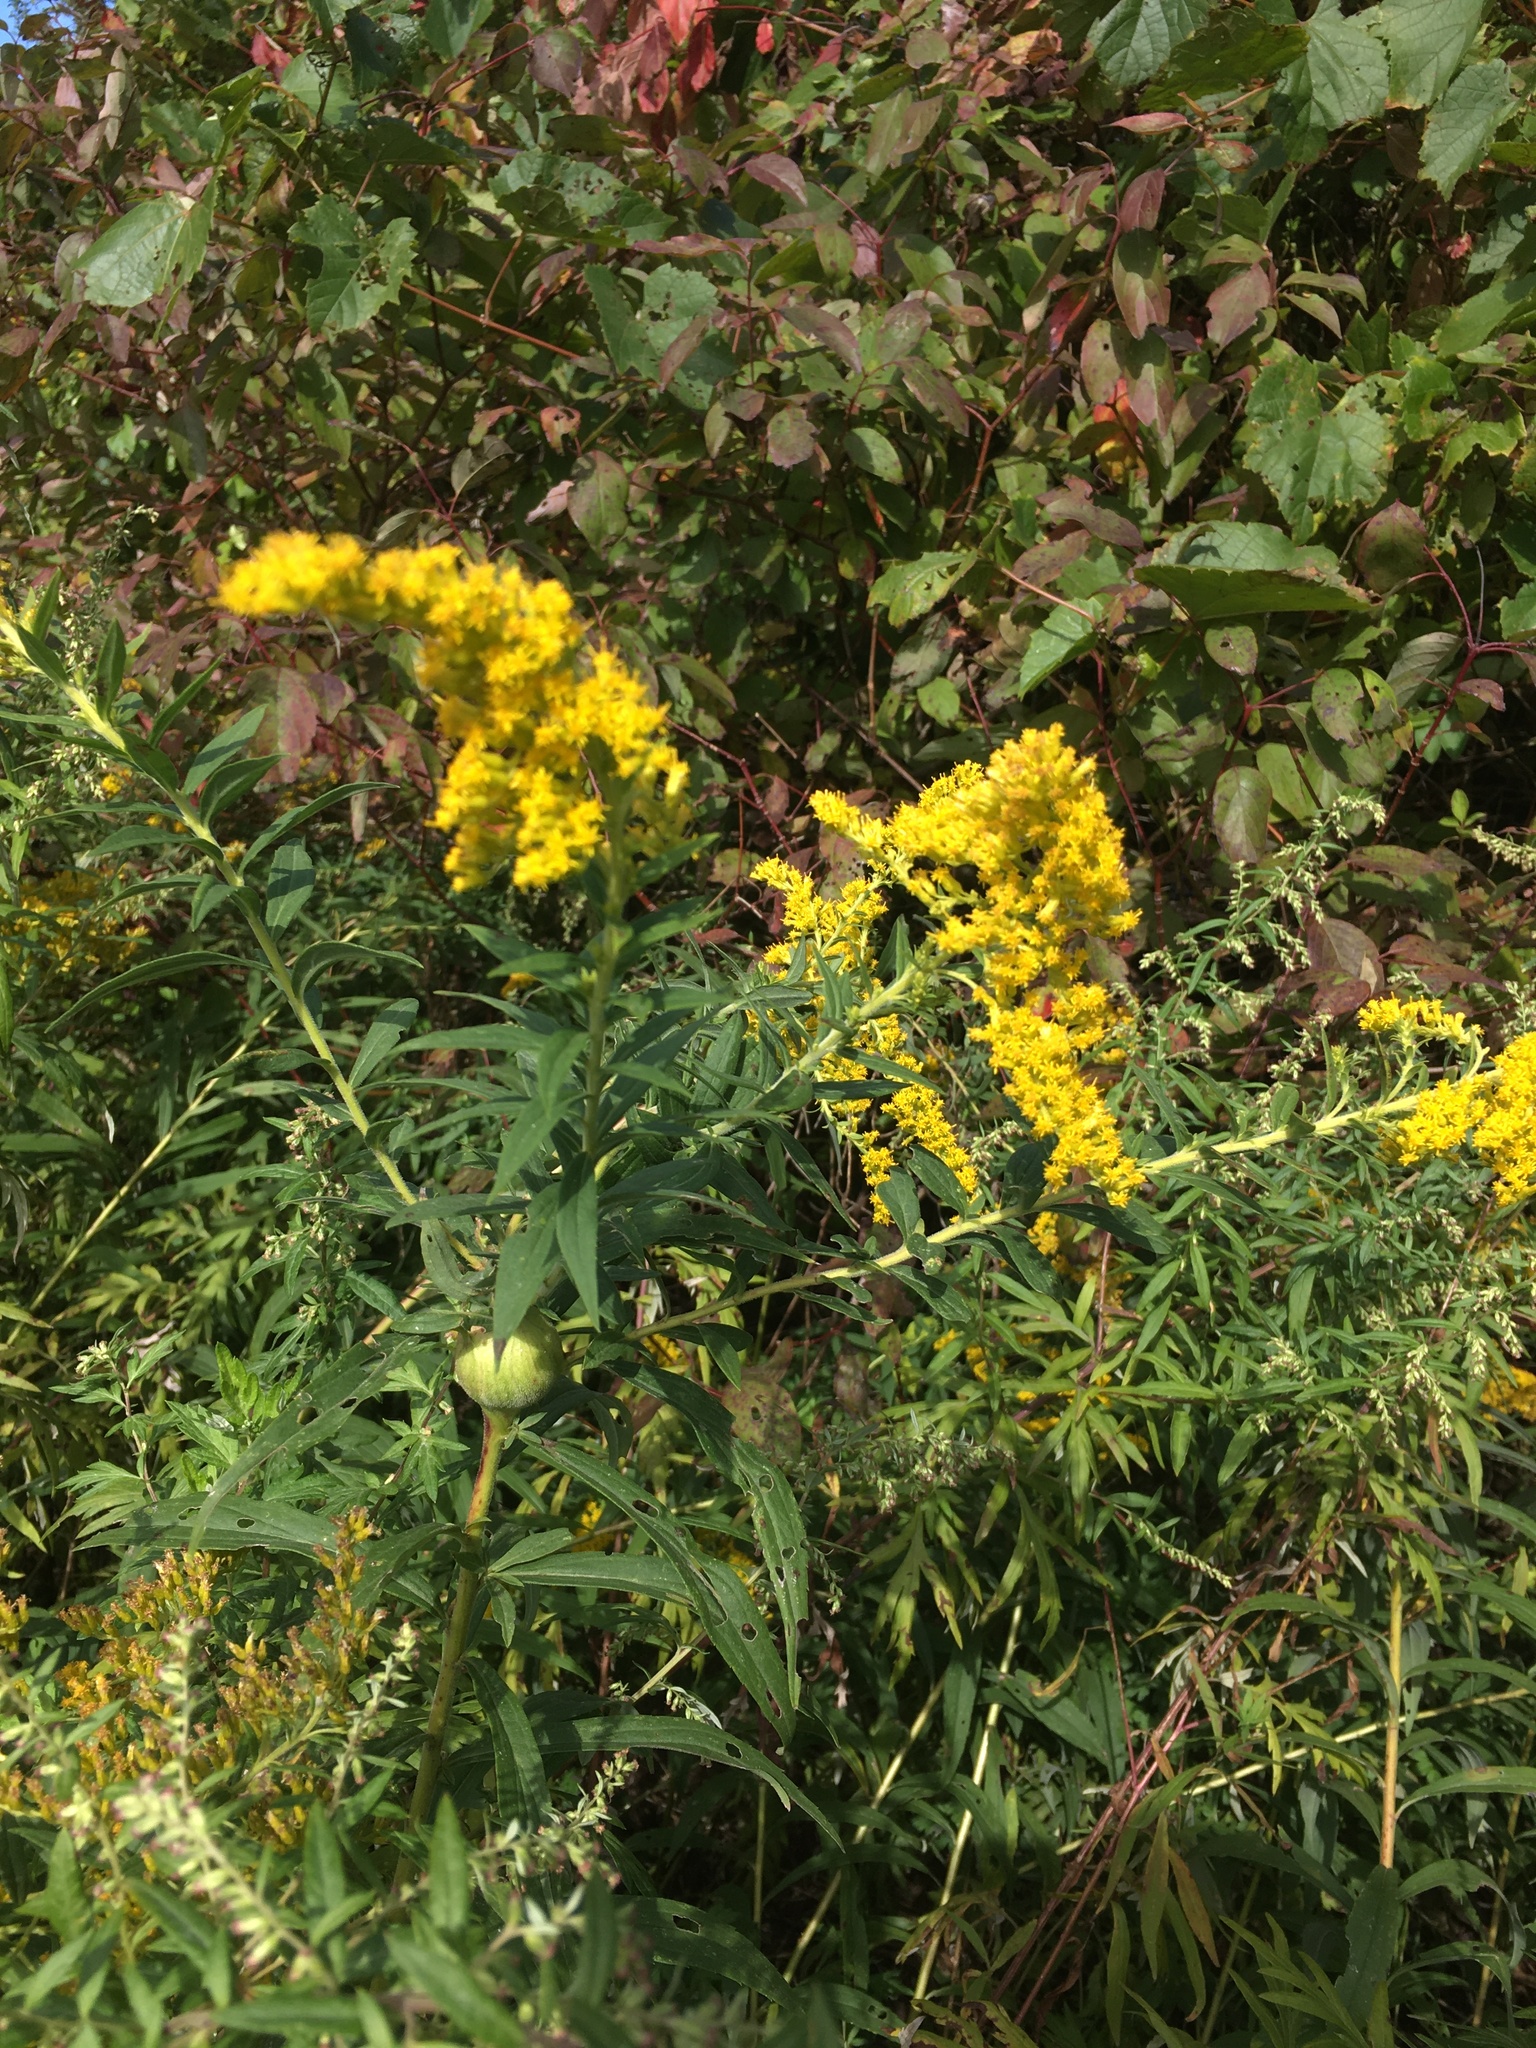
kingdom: Animalia
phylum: Arthropoda
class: Insecta
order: Diptera
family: Tephritidae
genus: Eurosta
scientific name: Eurosta solidaginis
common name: Goldenrod gall fly
